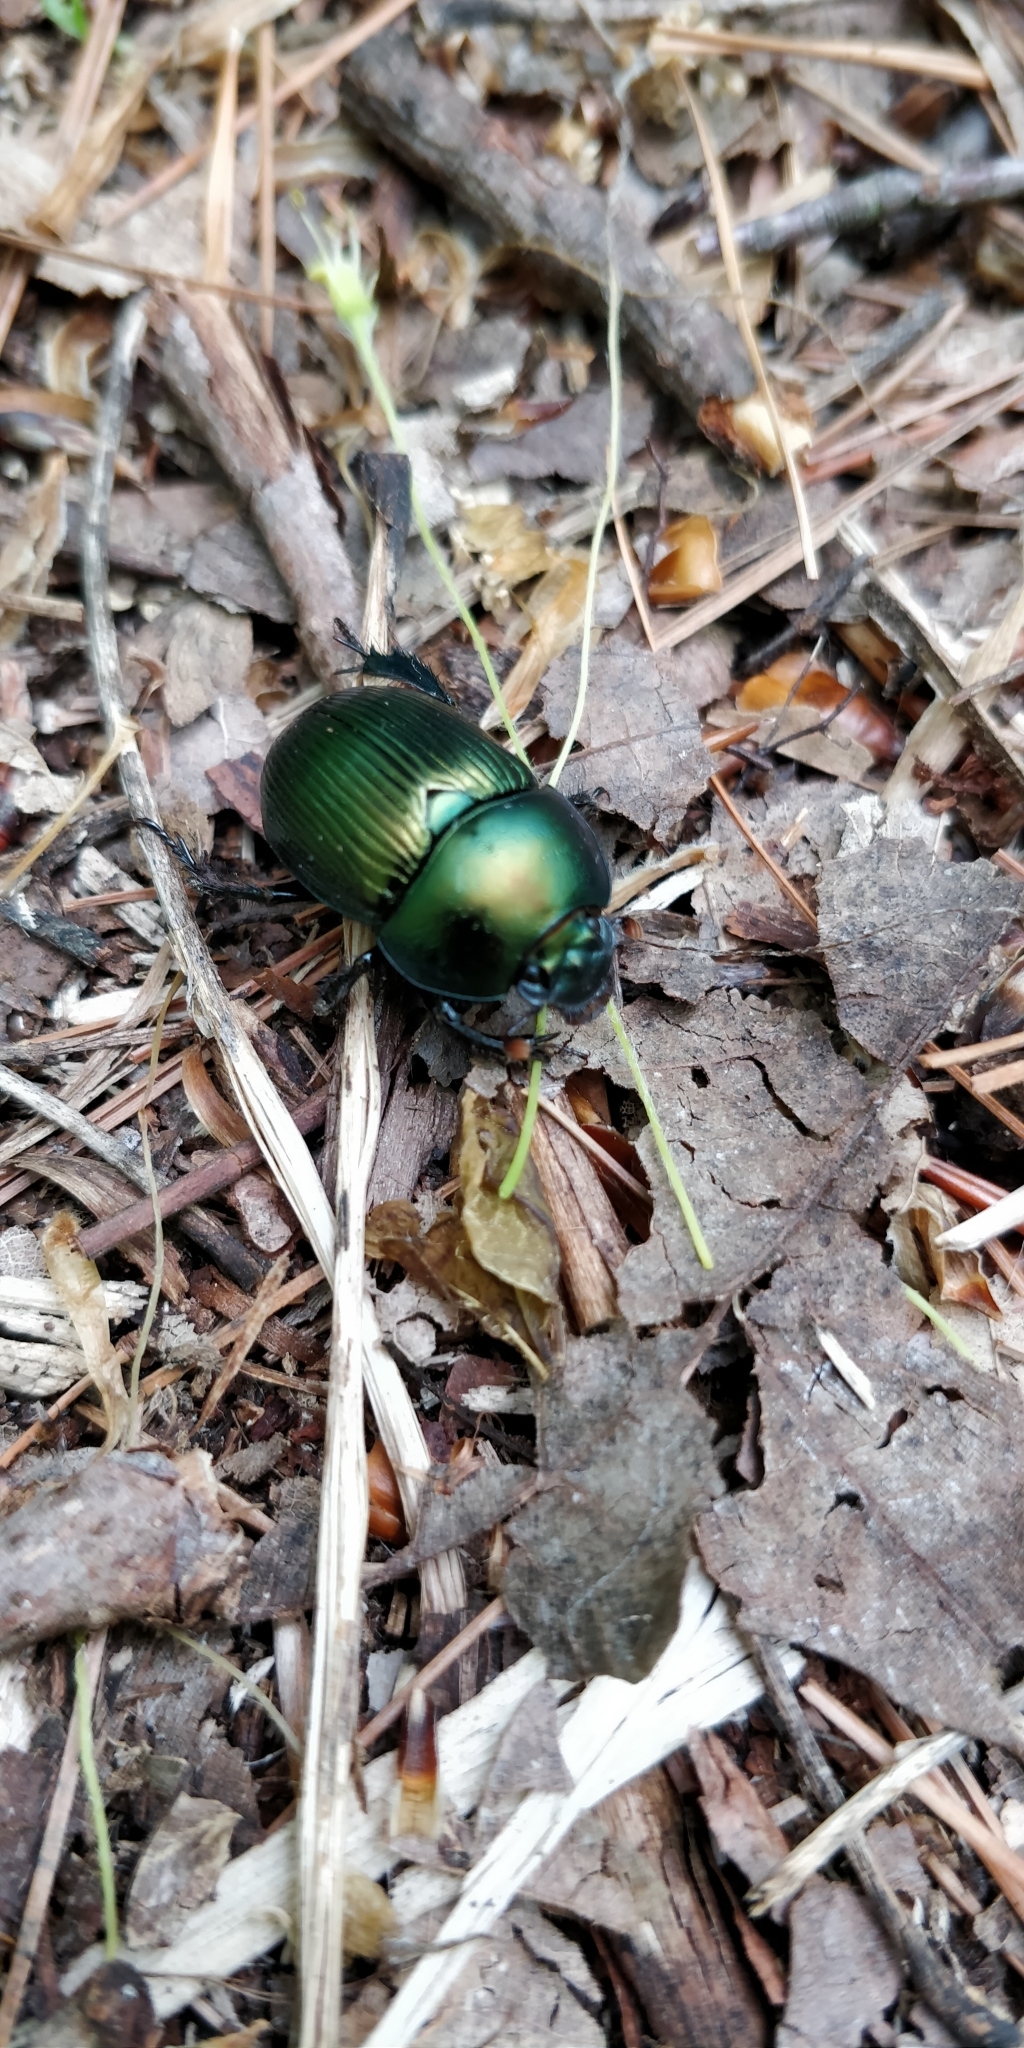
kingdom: Animalia
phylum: Arthropoda
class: Insecta
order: Coleoptera
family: Geotrupidae
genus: Geotrupes
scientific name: Geotrupes splendidus
